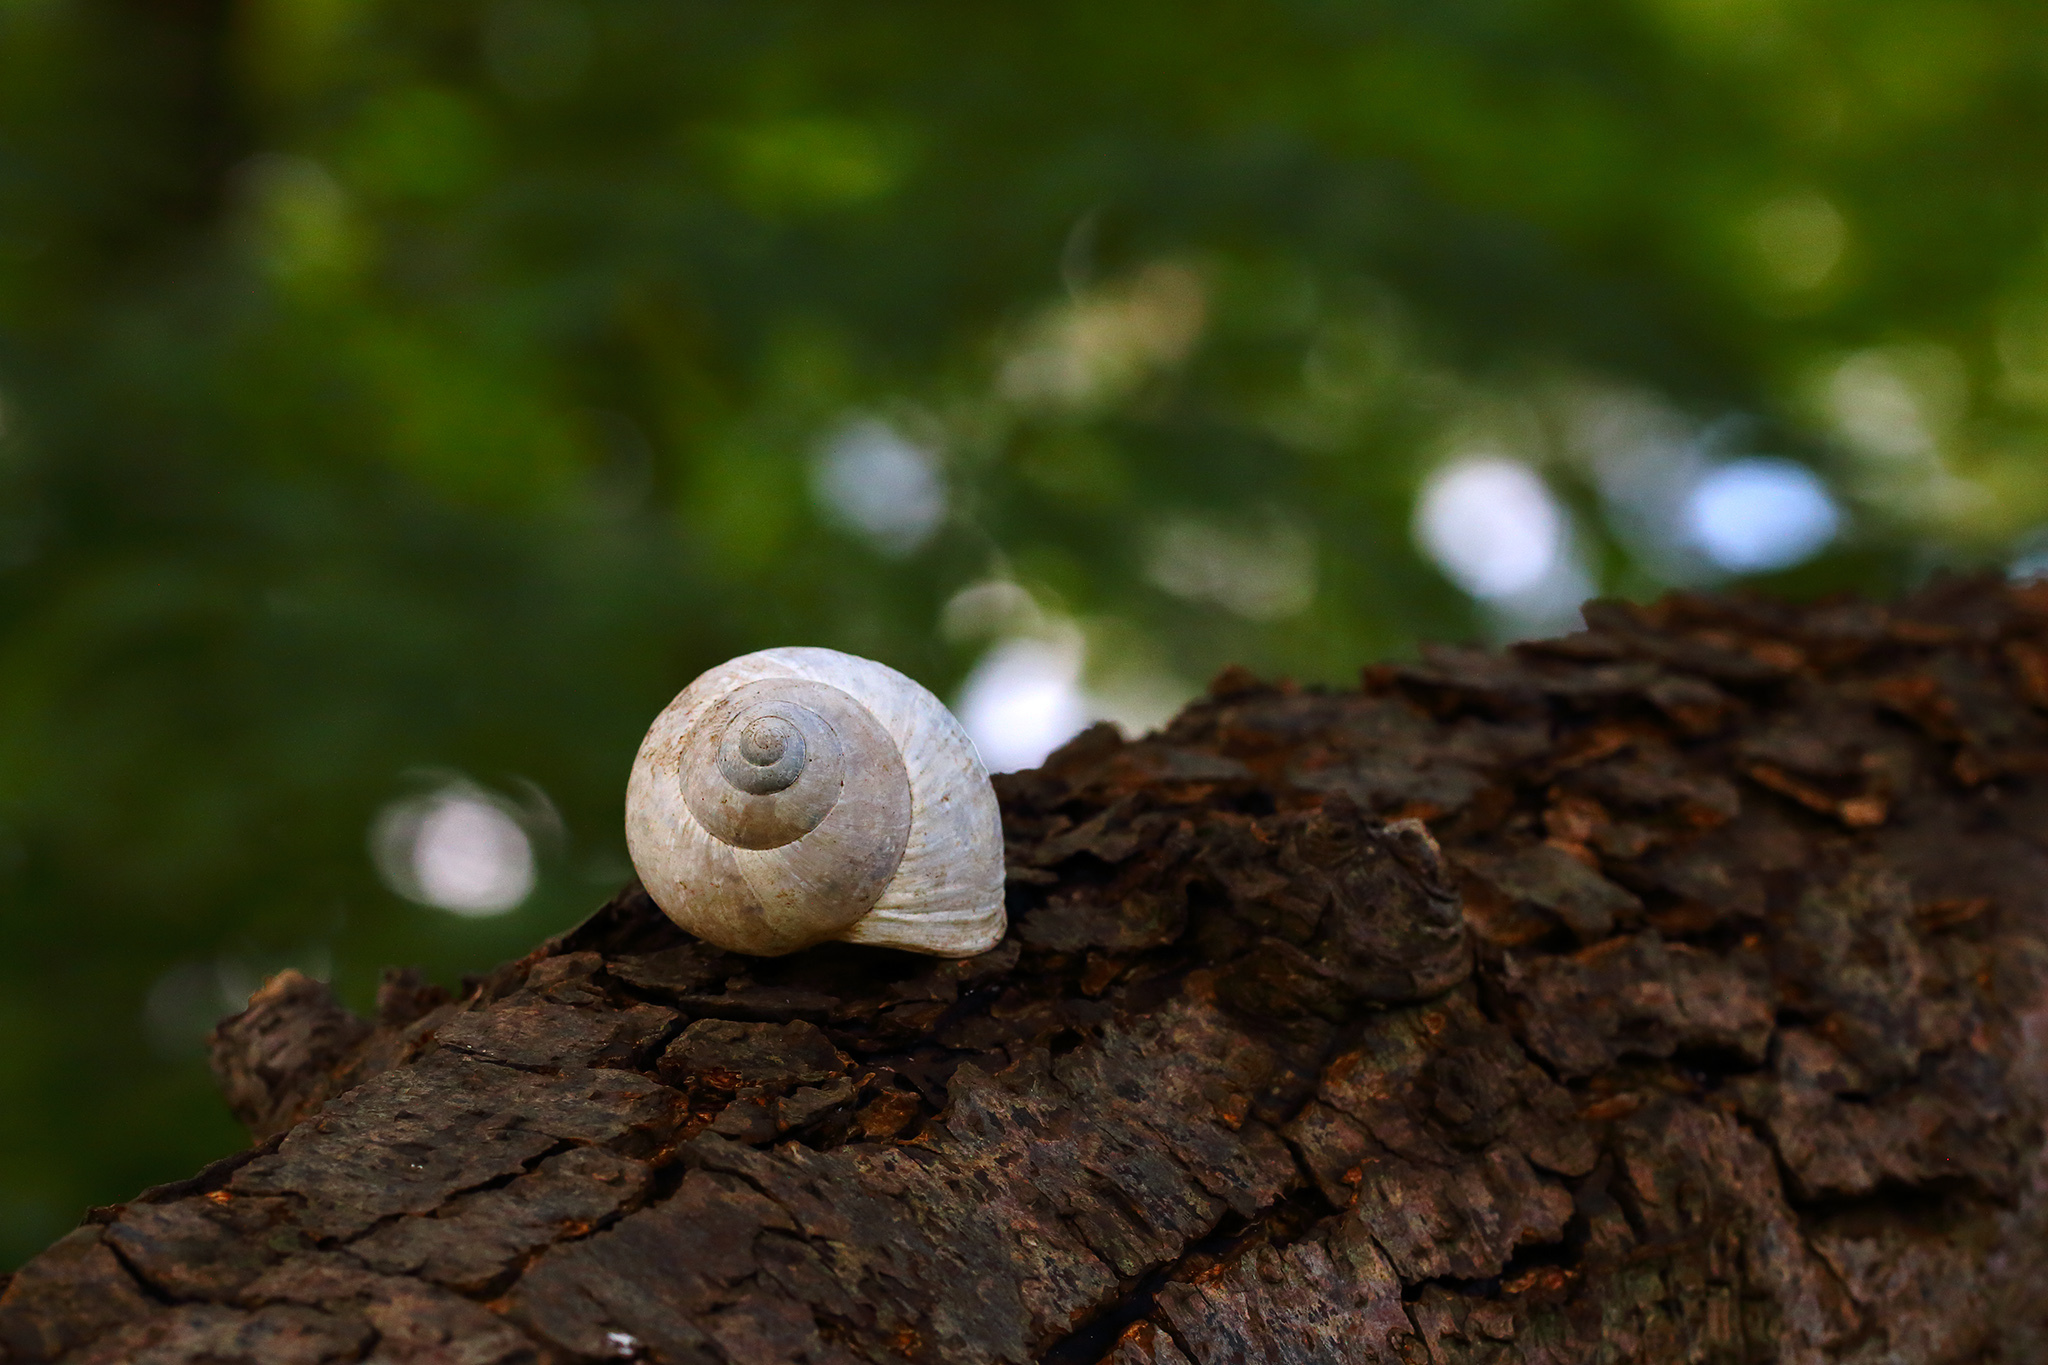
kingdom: Animalia
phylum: Mollusca
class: Gastropoda
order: Stylommatophora
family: Helicidae
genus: Helix
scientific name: Helix pomatia
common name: Roman snail
